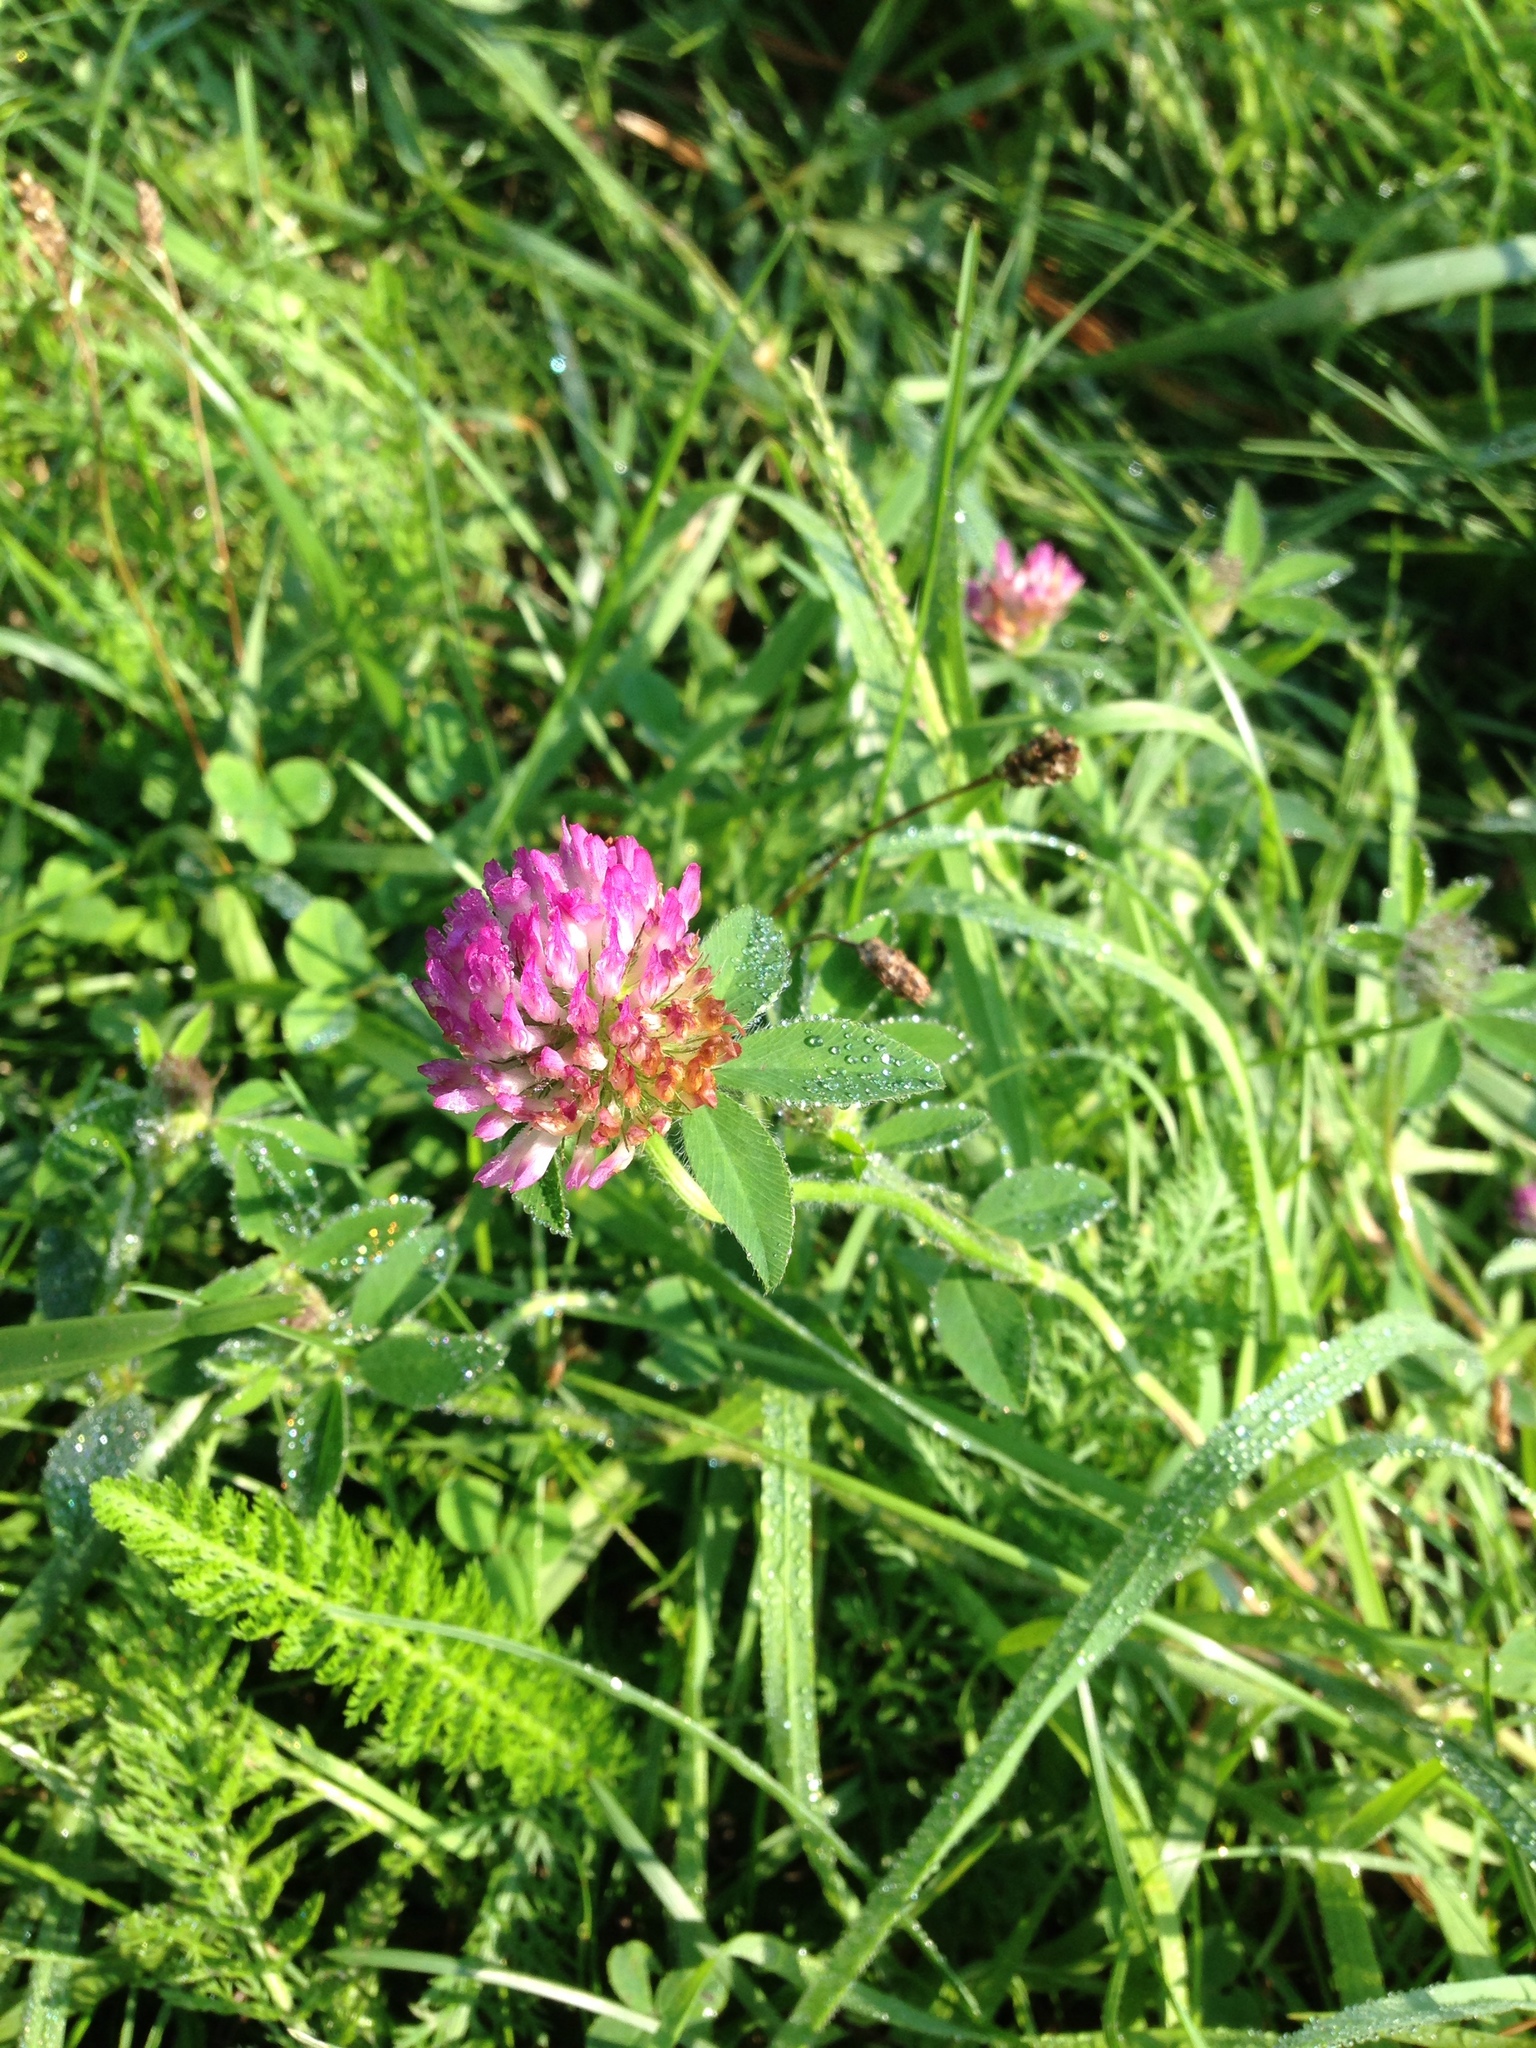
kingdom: Plantae
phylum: Tracheophyta
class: Magnoliopsida
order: Fabales
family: Fabaceae
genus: Trifolium
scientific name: Trifolium pratense
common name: Red clover
